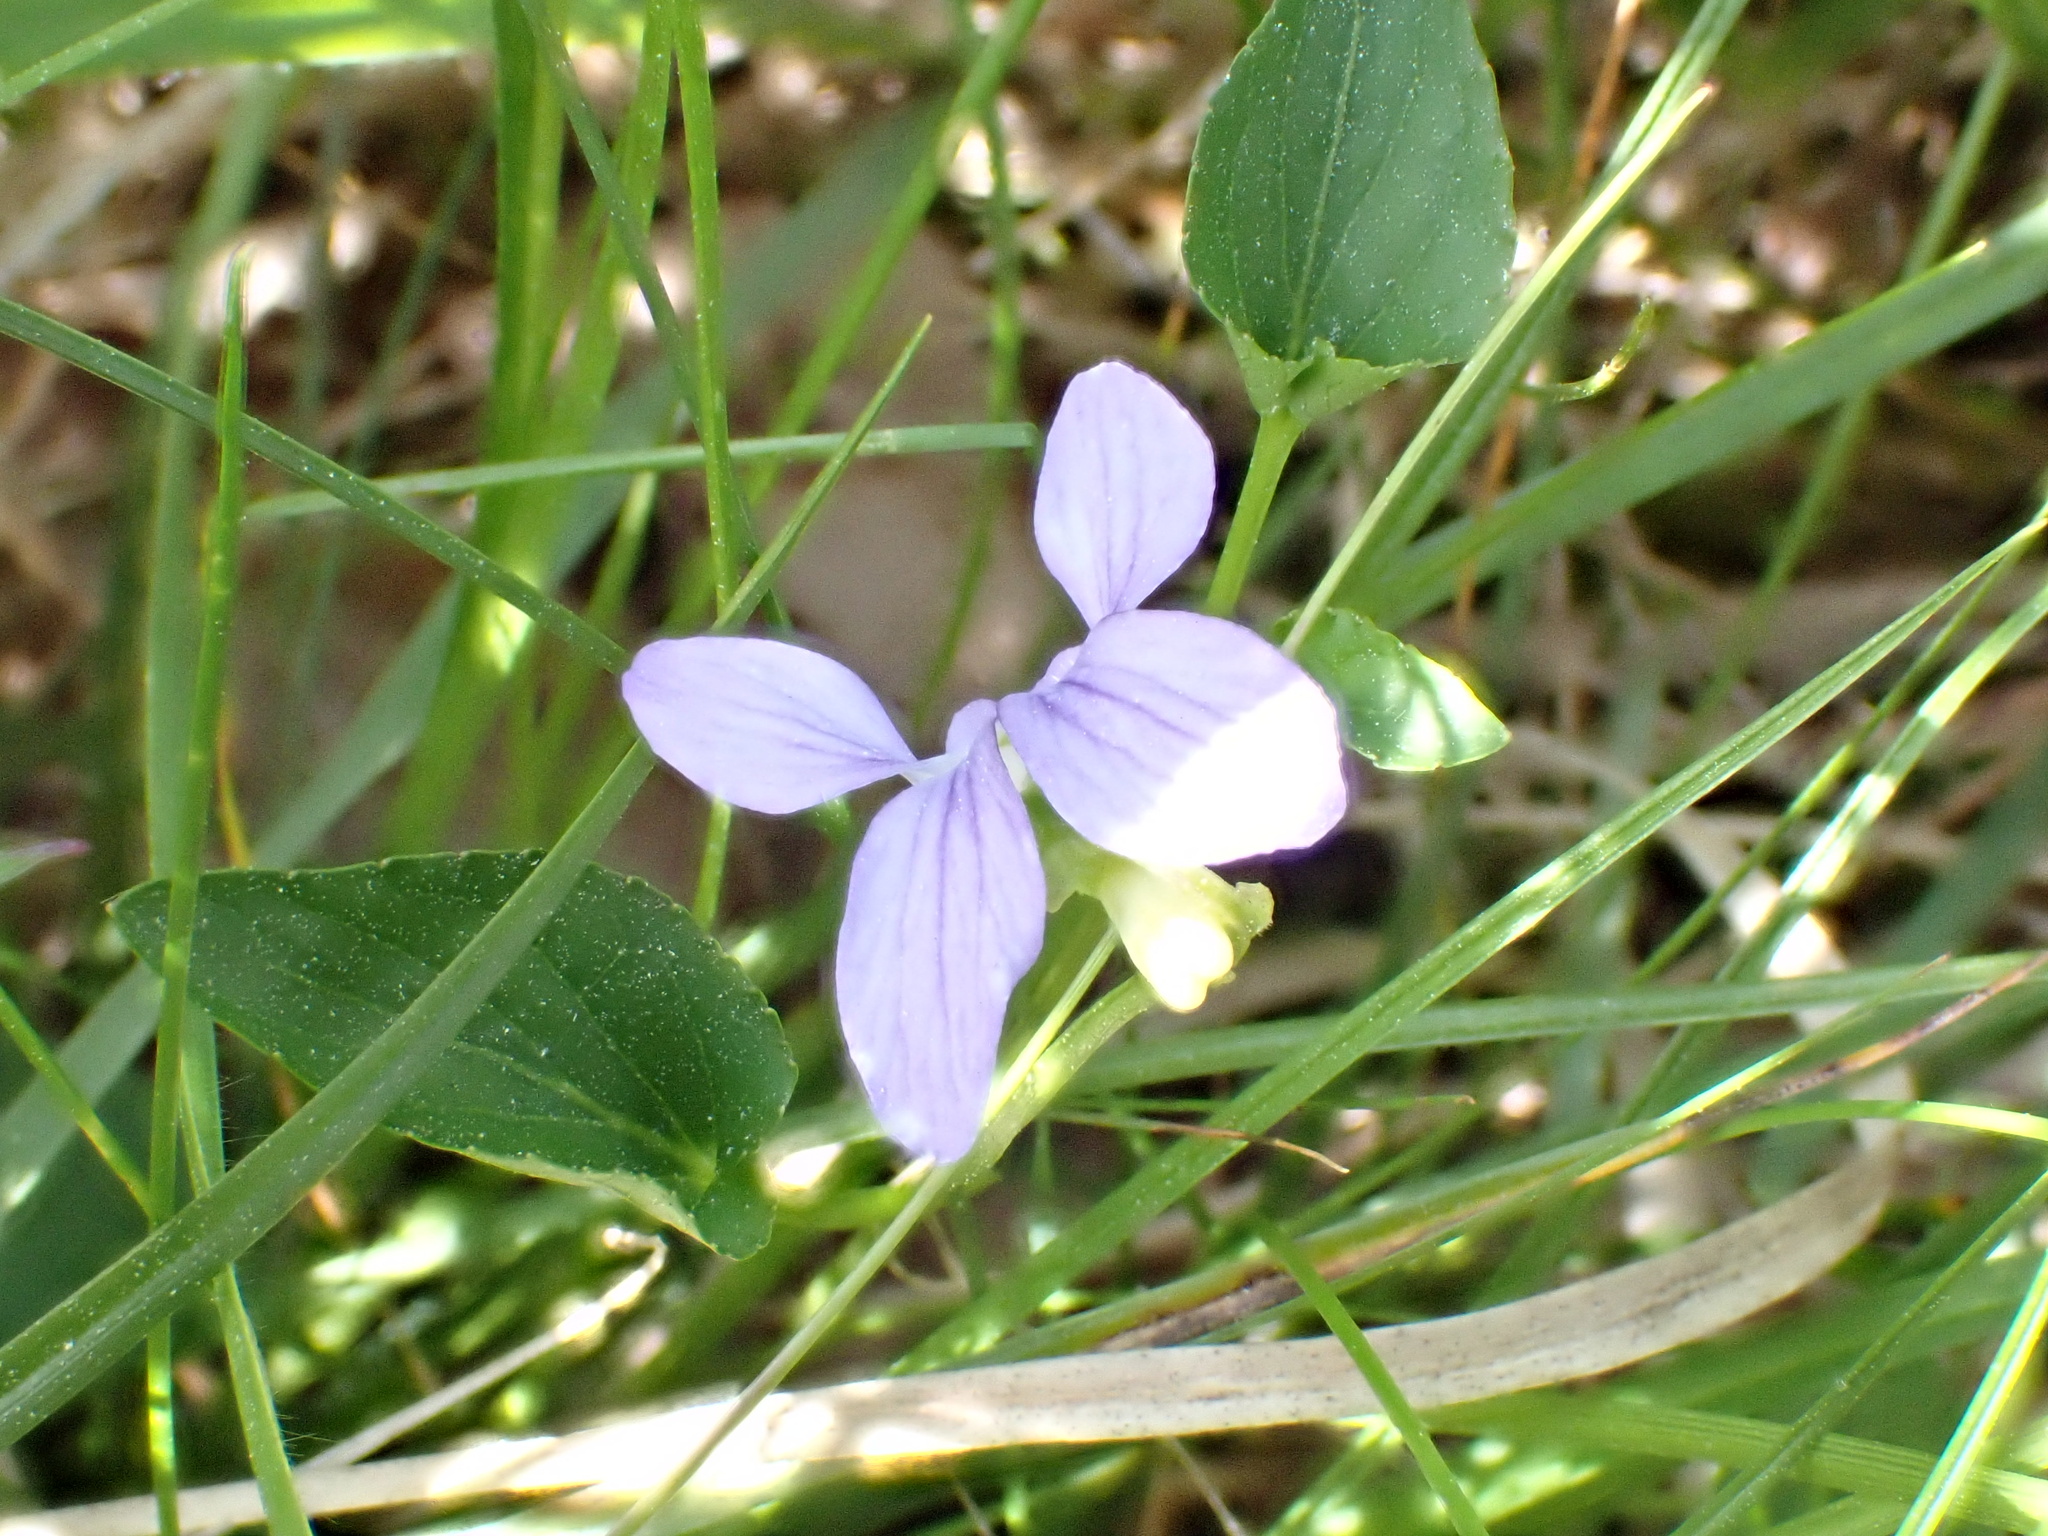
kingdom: Plantae
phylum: Tracheophyta
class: Magnoliopsida
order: Malpighiales
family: Violaceae
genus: Viola
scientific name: Viola canina
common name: Heath dog-violet
